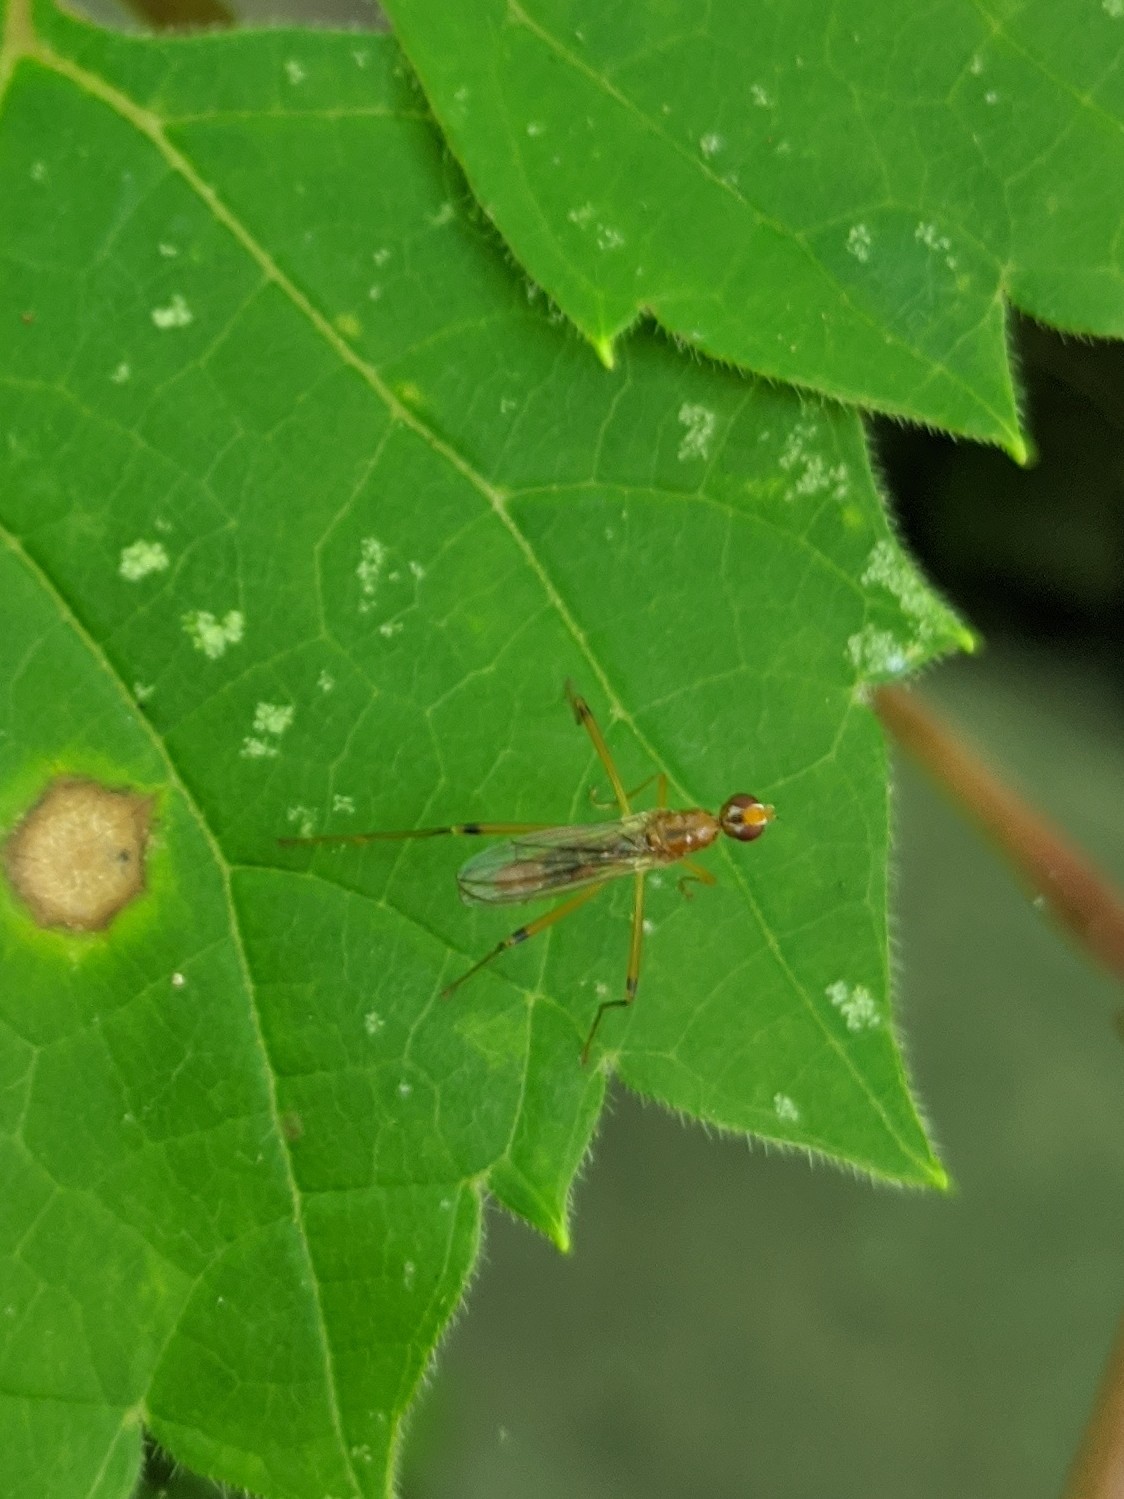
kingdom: Animalia
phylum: Arthropoda
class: Insecta
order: Diptera
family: Micropezidae
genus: Compsobata
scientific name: Compsobata univitta
